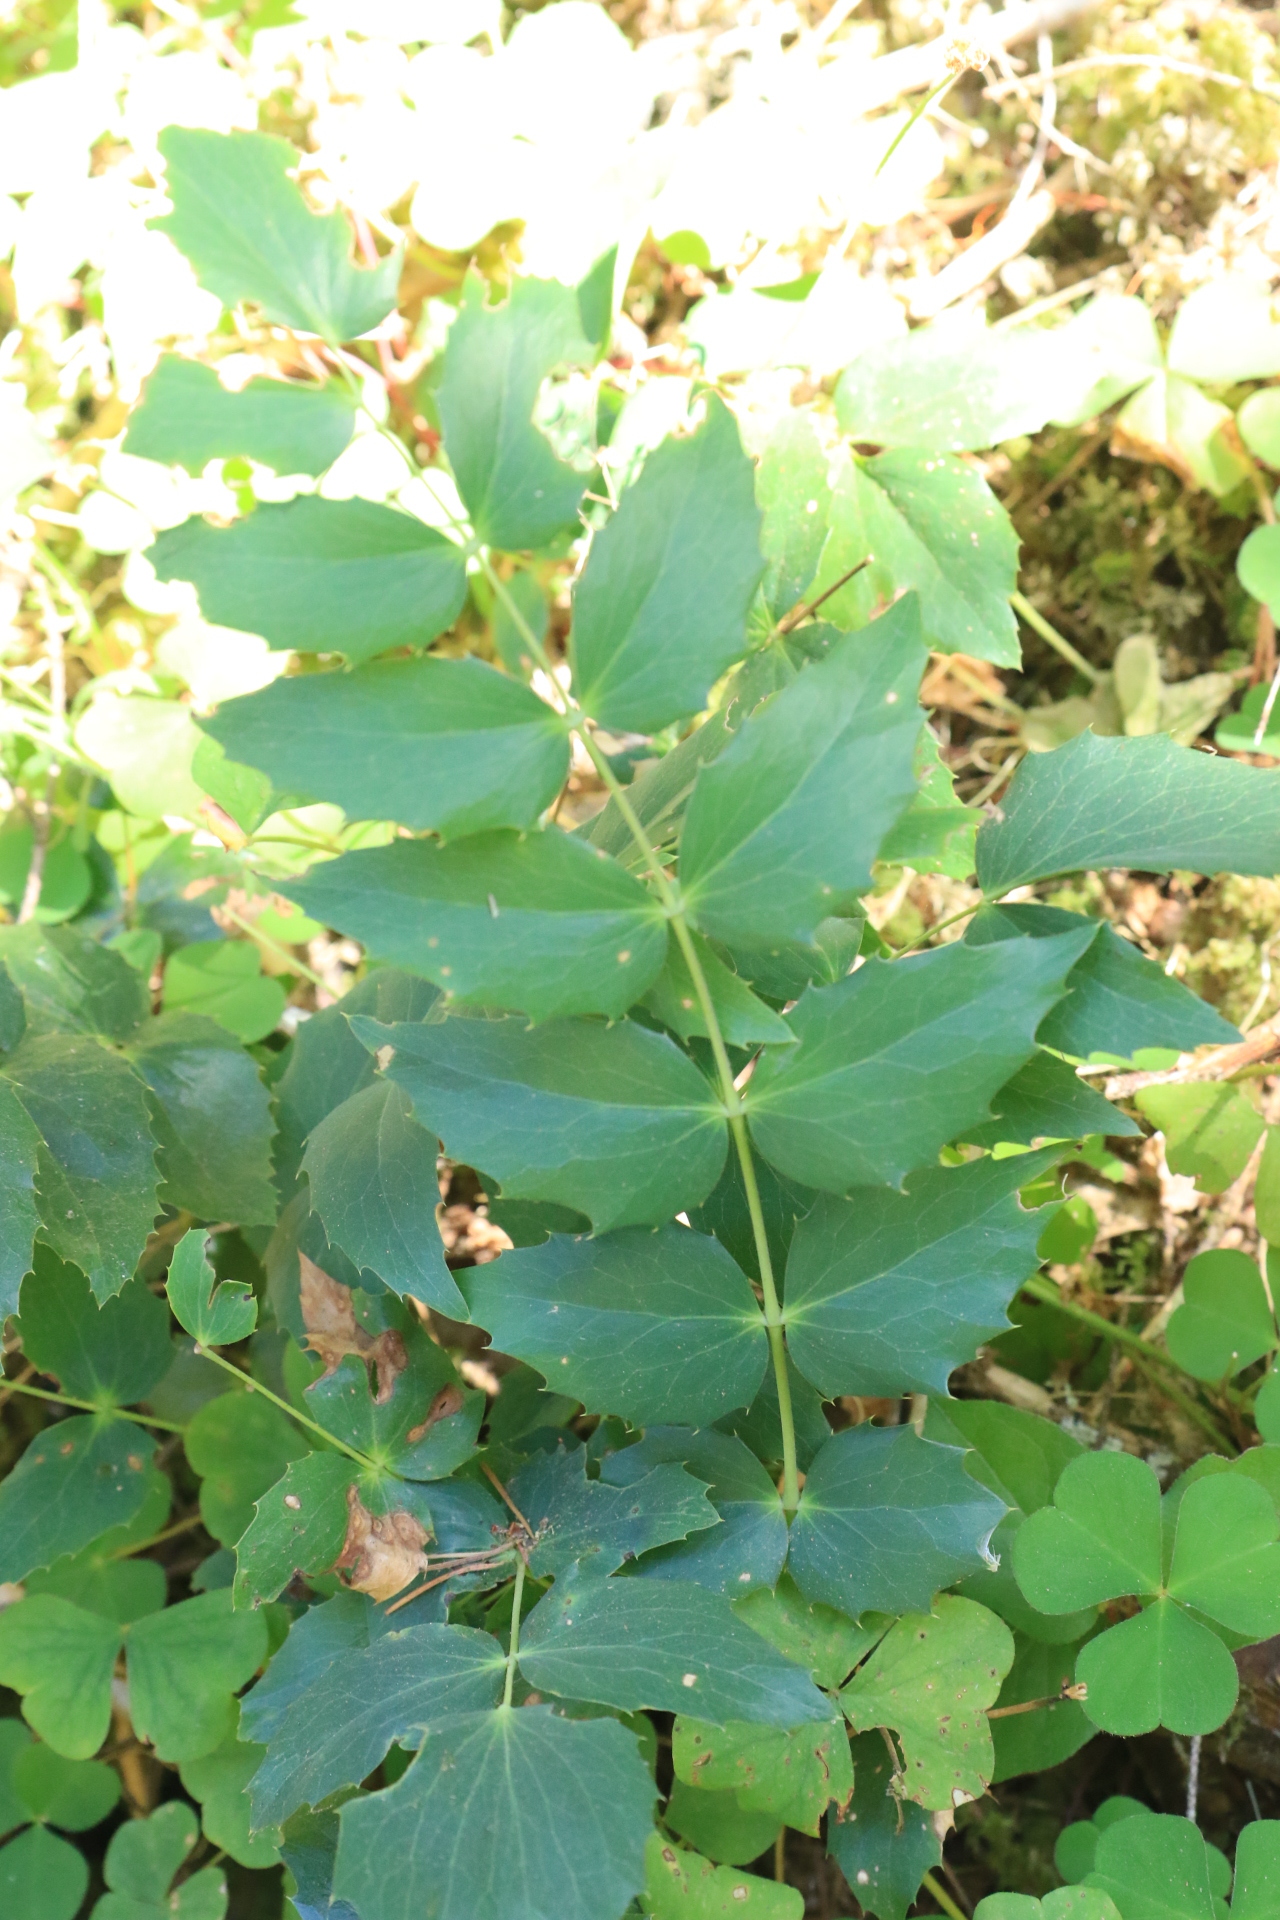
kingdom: Plantae
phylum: Tracheophyta
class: Magnoliopsida
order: Ranunculales
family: Berberidaceae
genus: Mahonia
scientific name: Mahonia nervosa
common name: Cascade oregon-grape
